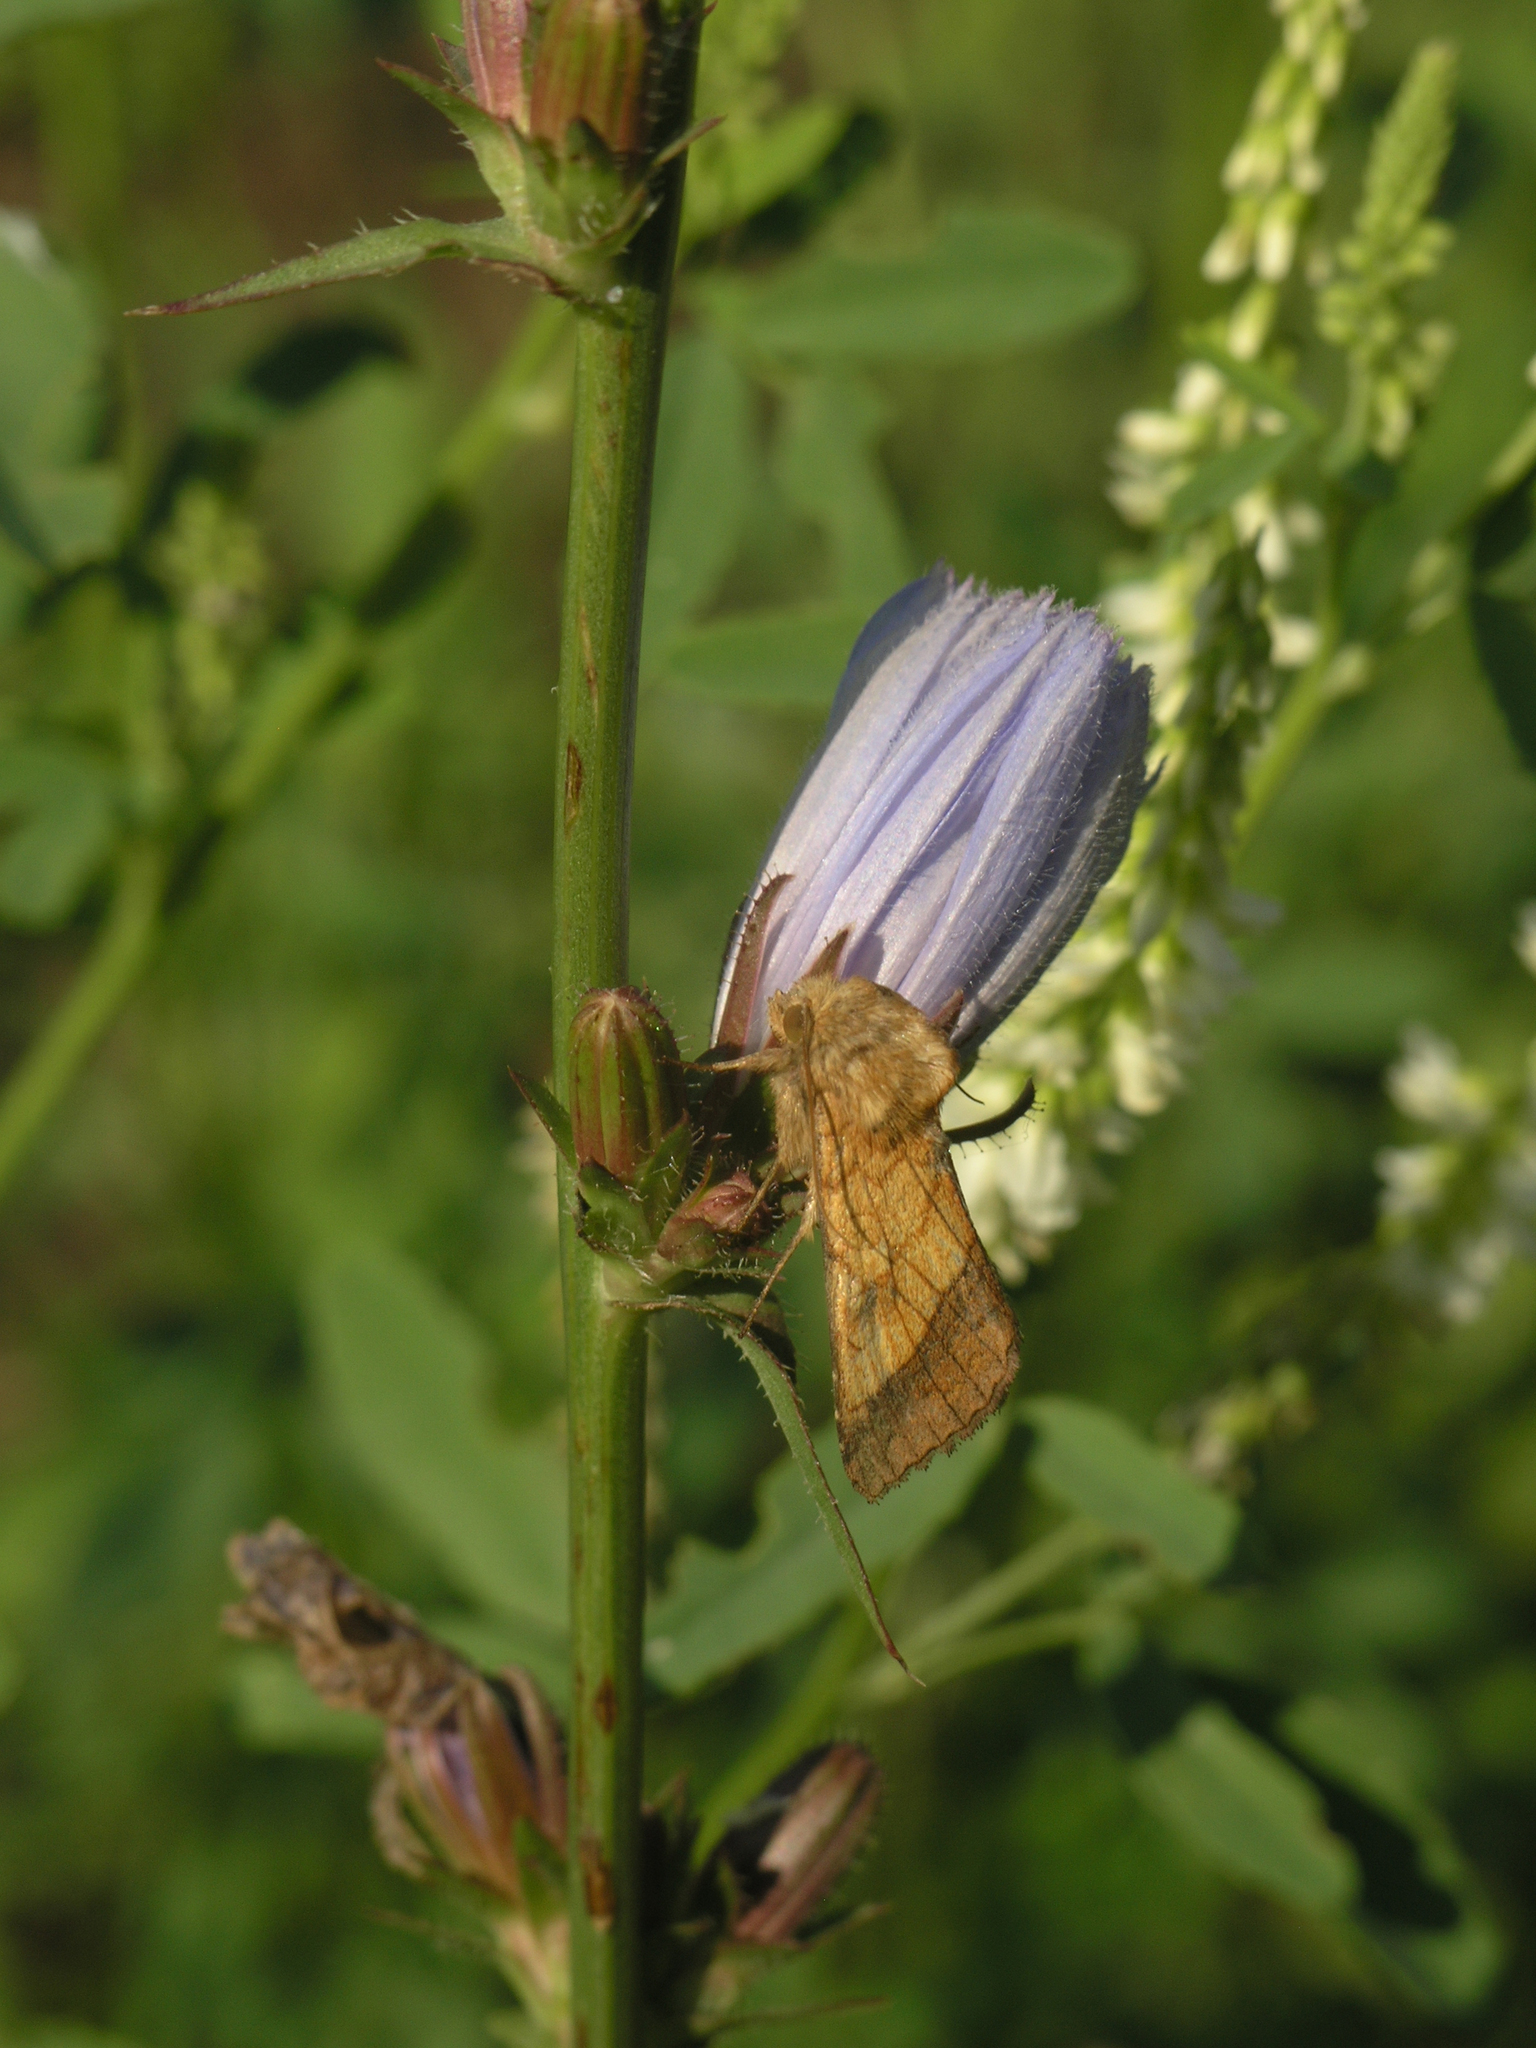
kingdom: Plantae
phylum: Tracheophyta
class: Magnoliopsida
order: Asterales
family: Asteraceae
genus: Cichorium
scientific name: Cichorium intybus
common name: Chicory
